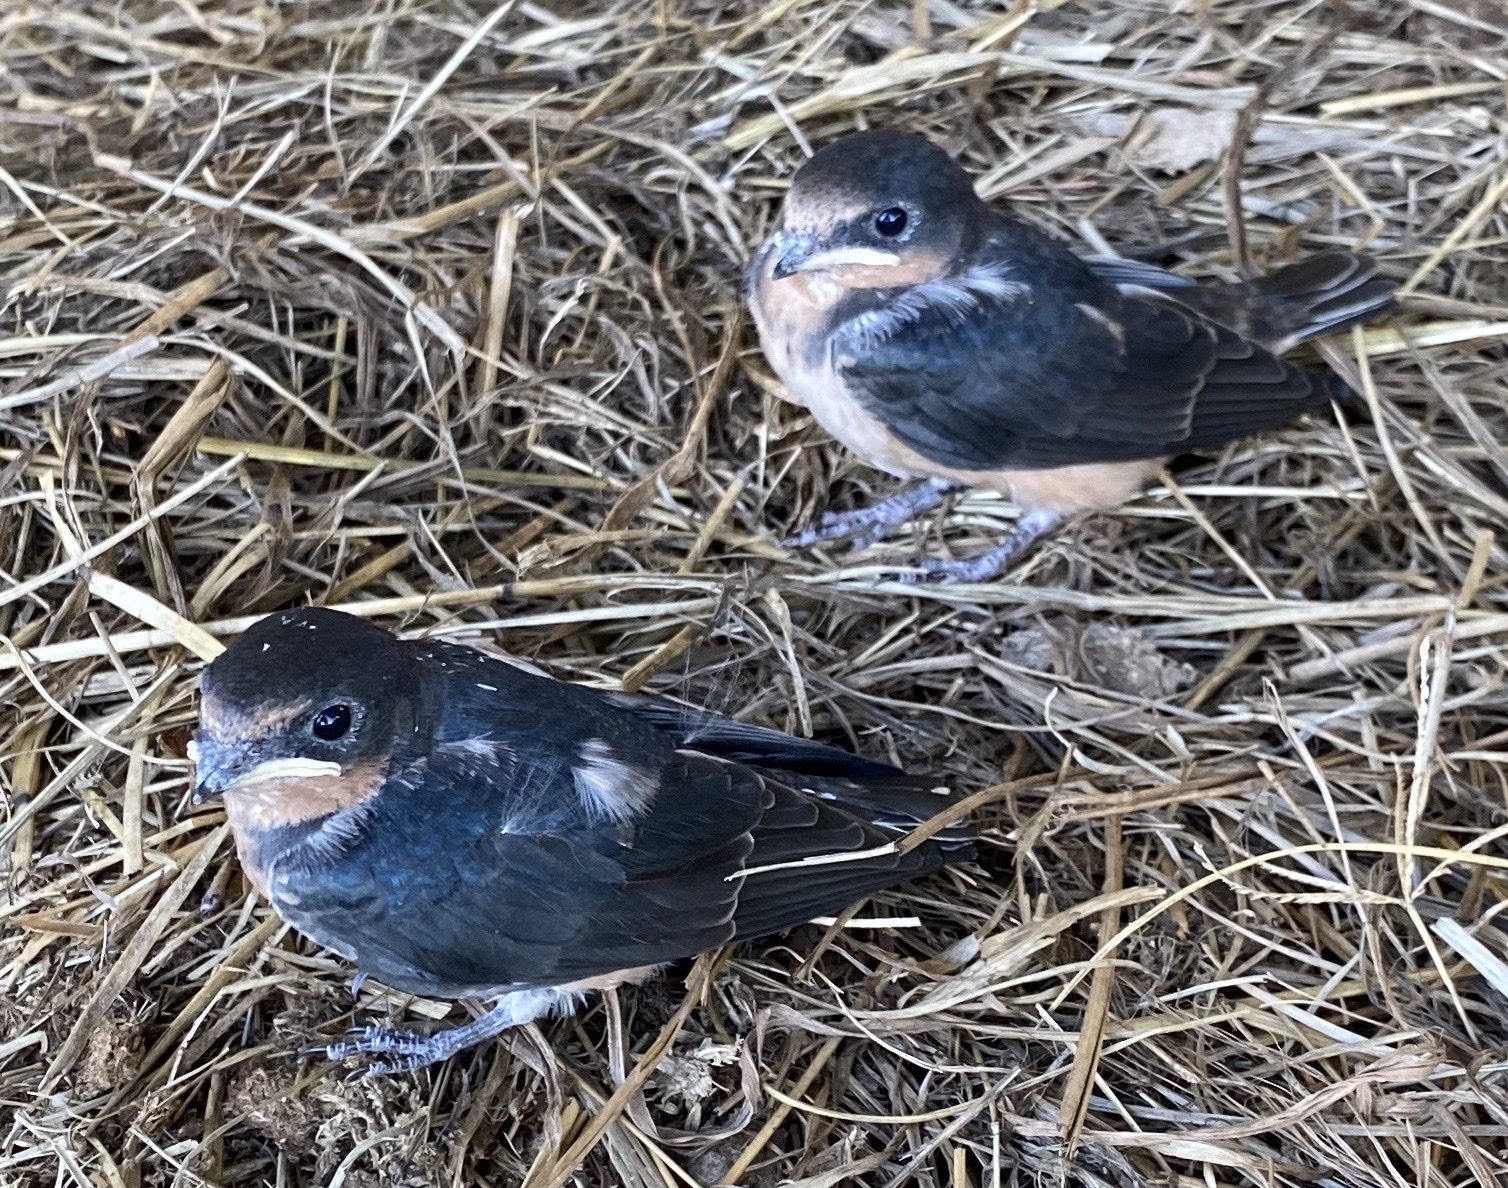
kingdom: Animalia
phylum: Chordata
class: Aves
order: Passeriformes
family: Hirundinidae
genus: Hirundo
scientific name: Hirundo rustica
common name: Barn swallow
